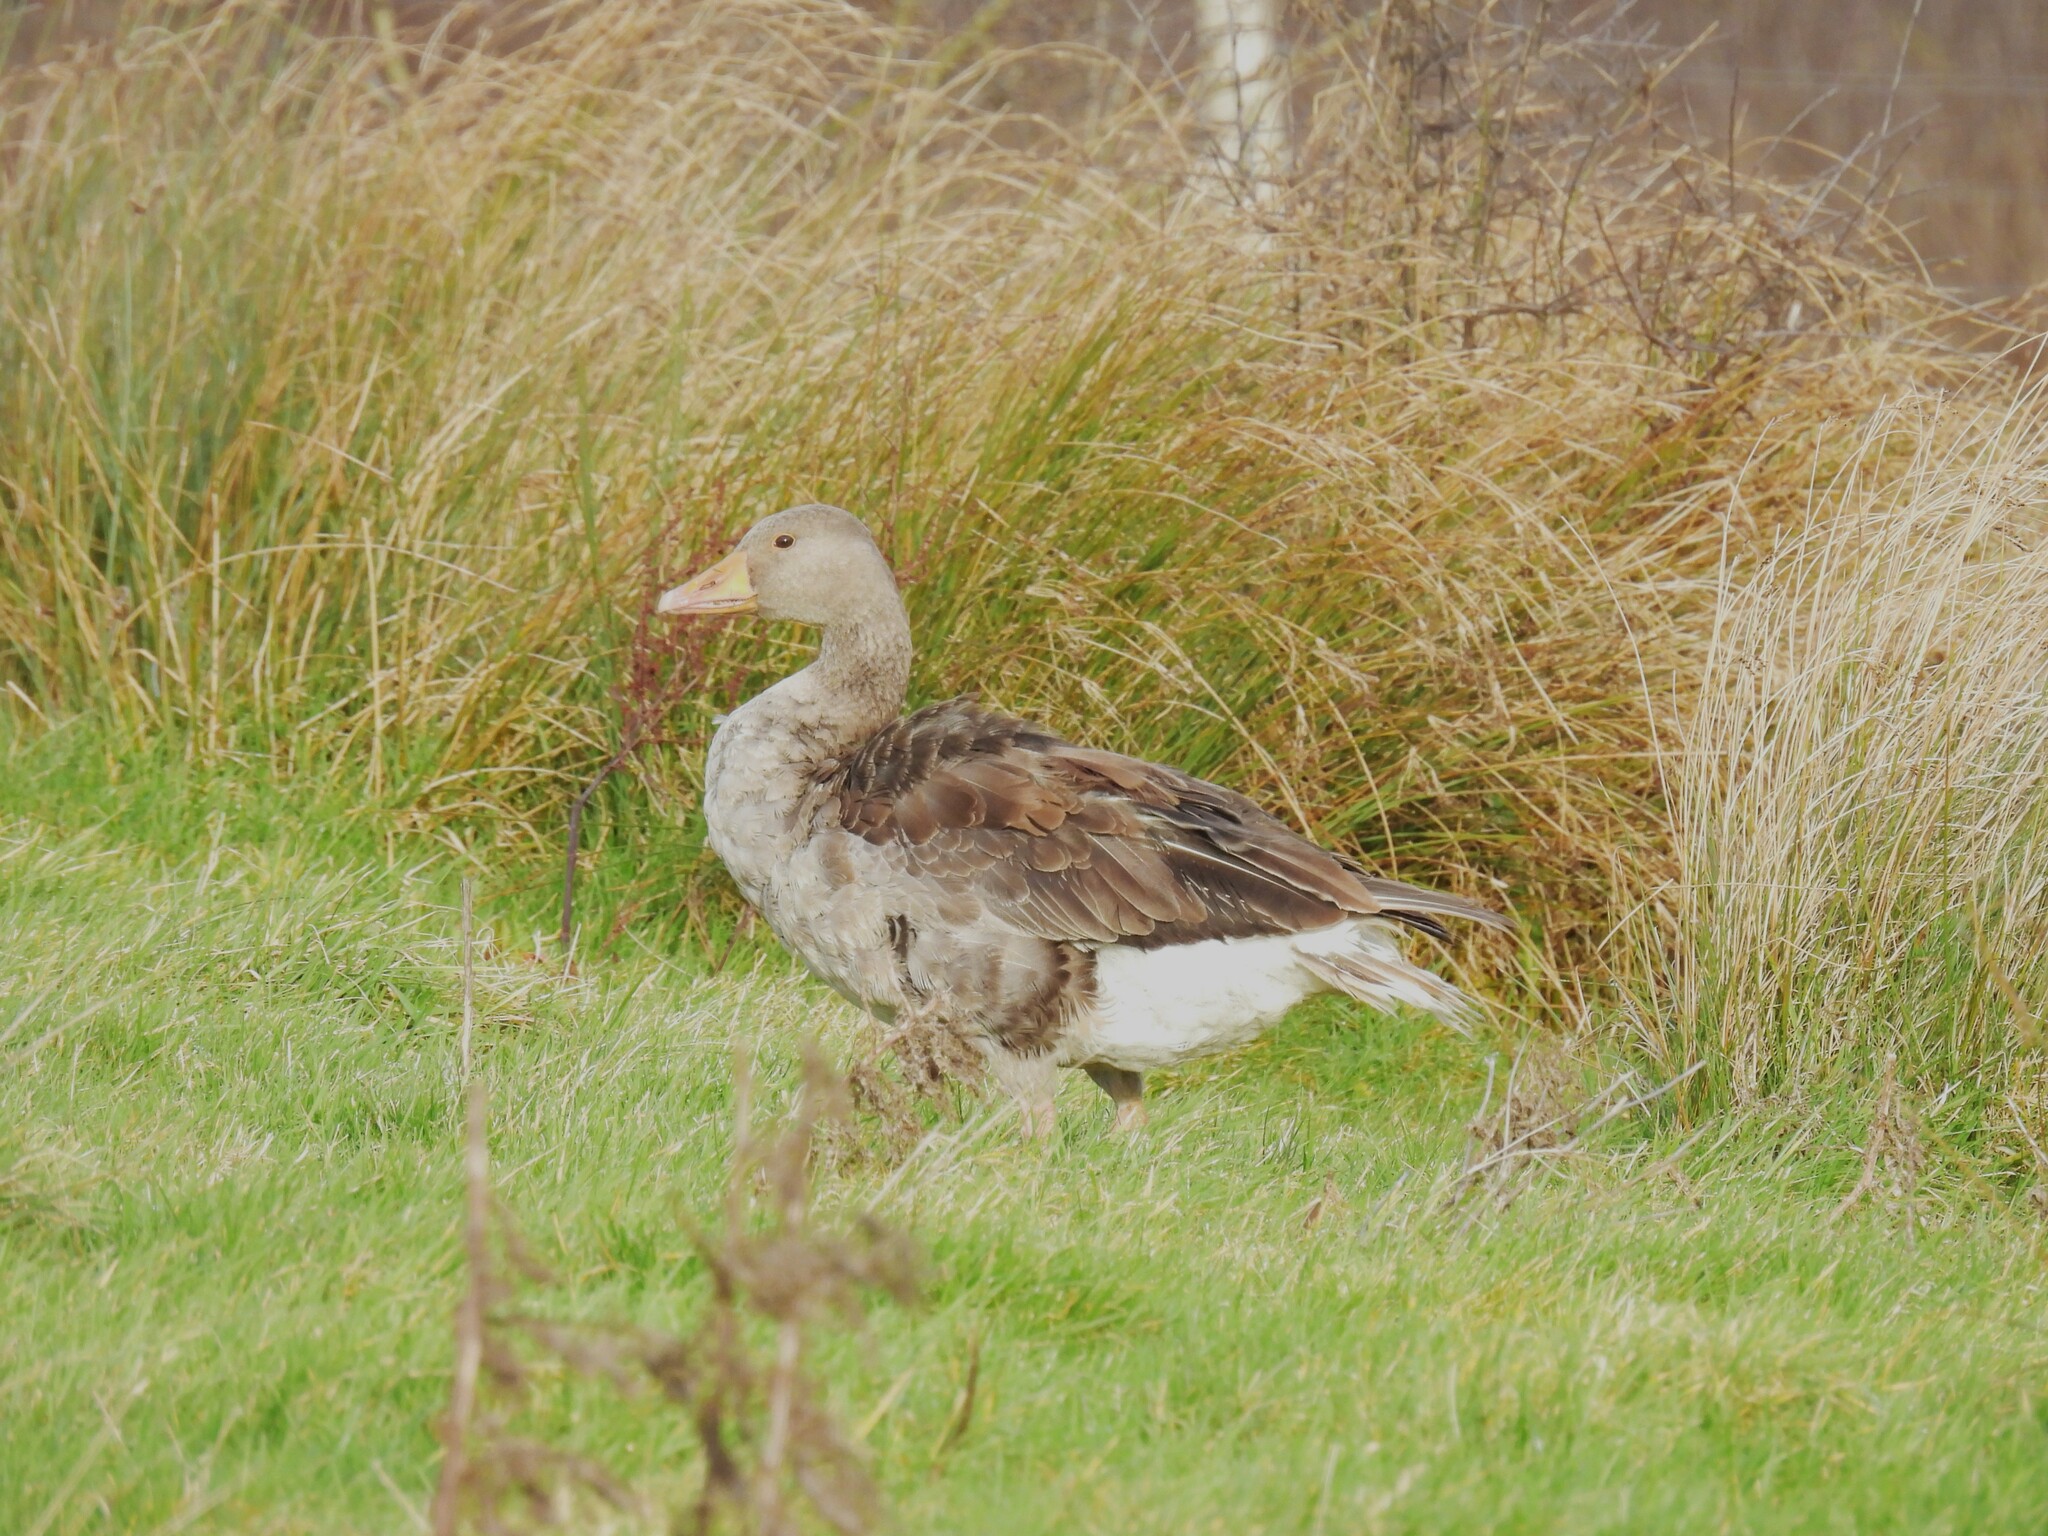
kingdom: Animalia
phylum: Chordata
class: Aves
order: Anseriformes
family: Anatidae
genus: Anser
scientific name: Anser anser
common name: Greylag goose
